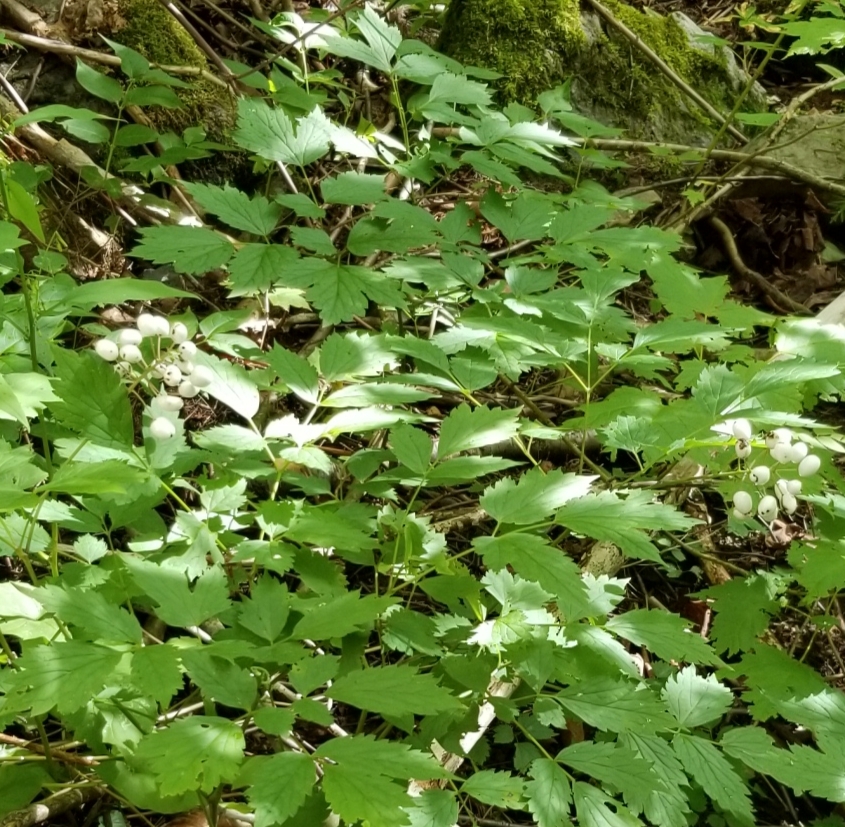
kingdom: Plantae
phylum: Tracheophyta
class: Magnoliopsida
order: Ranunculales
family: Ranunculaceae
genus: Actaea
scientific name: Actaea rubra
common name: Red baneberry
